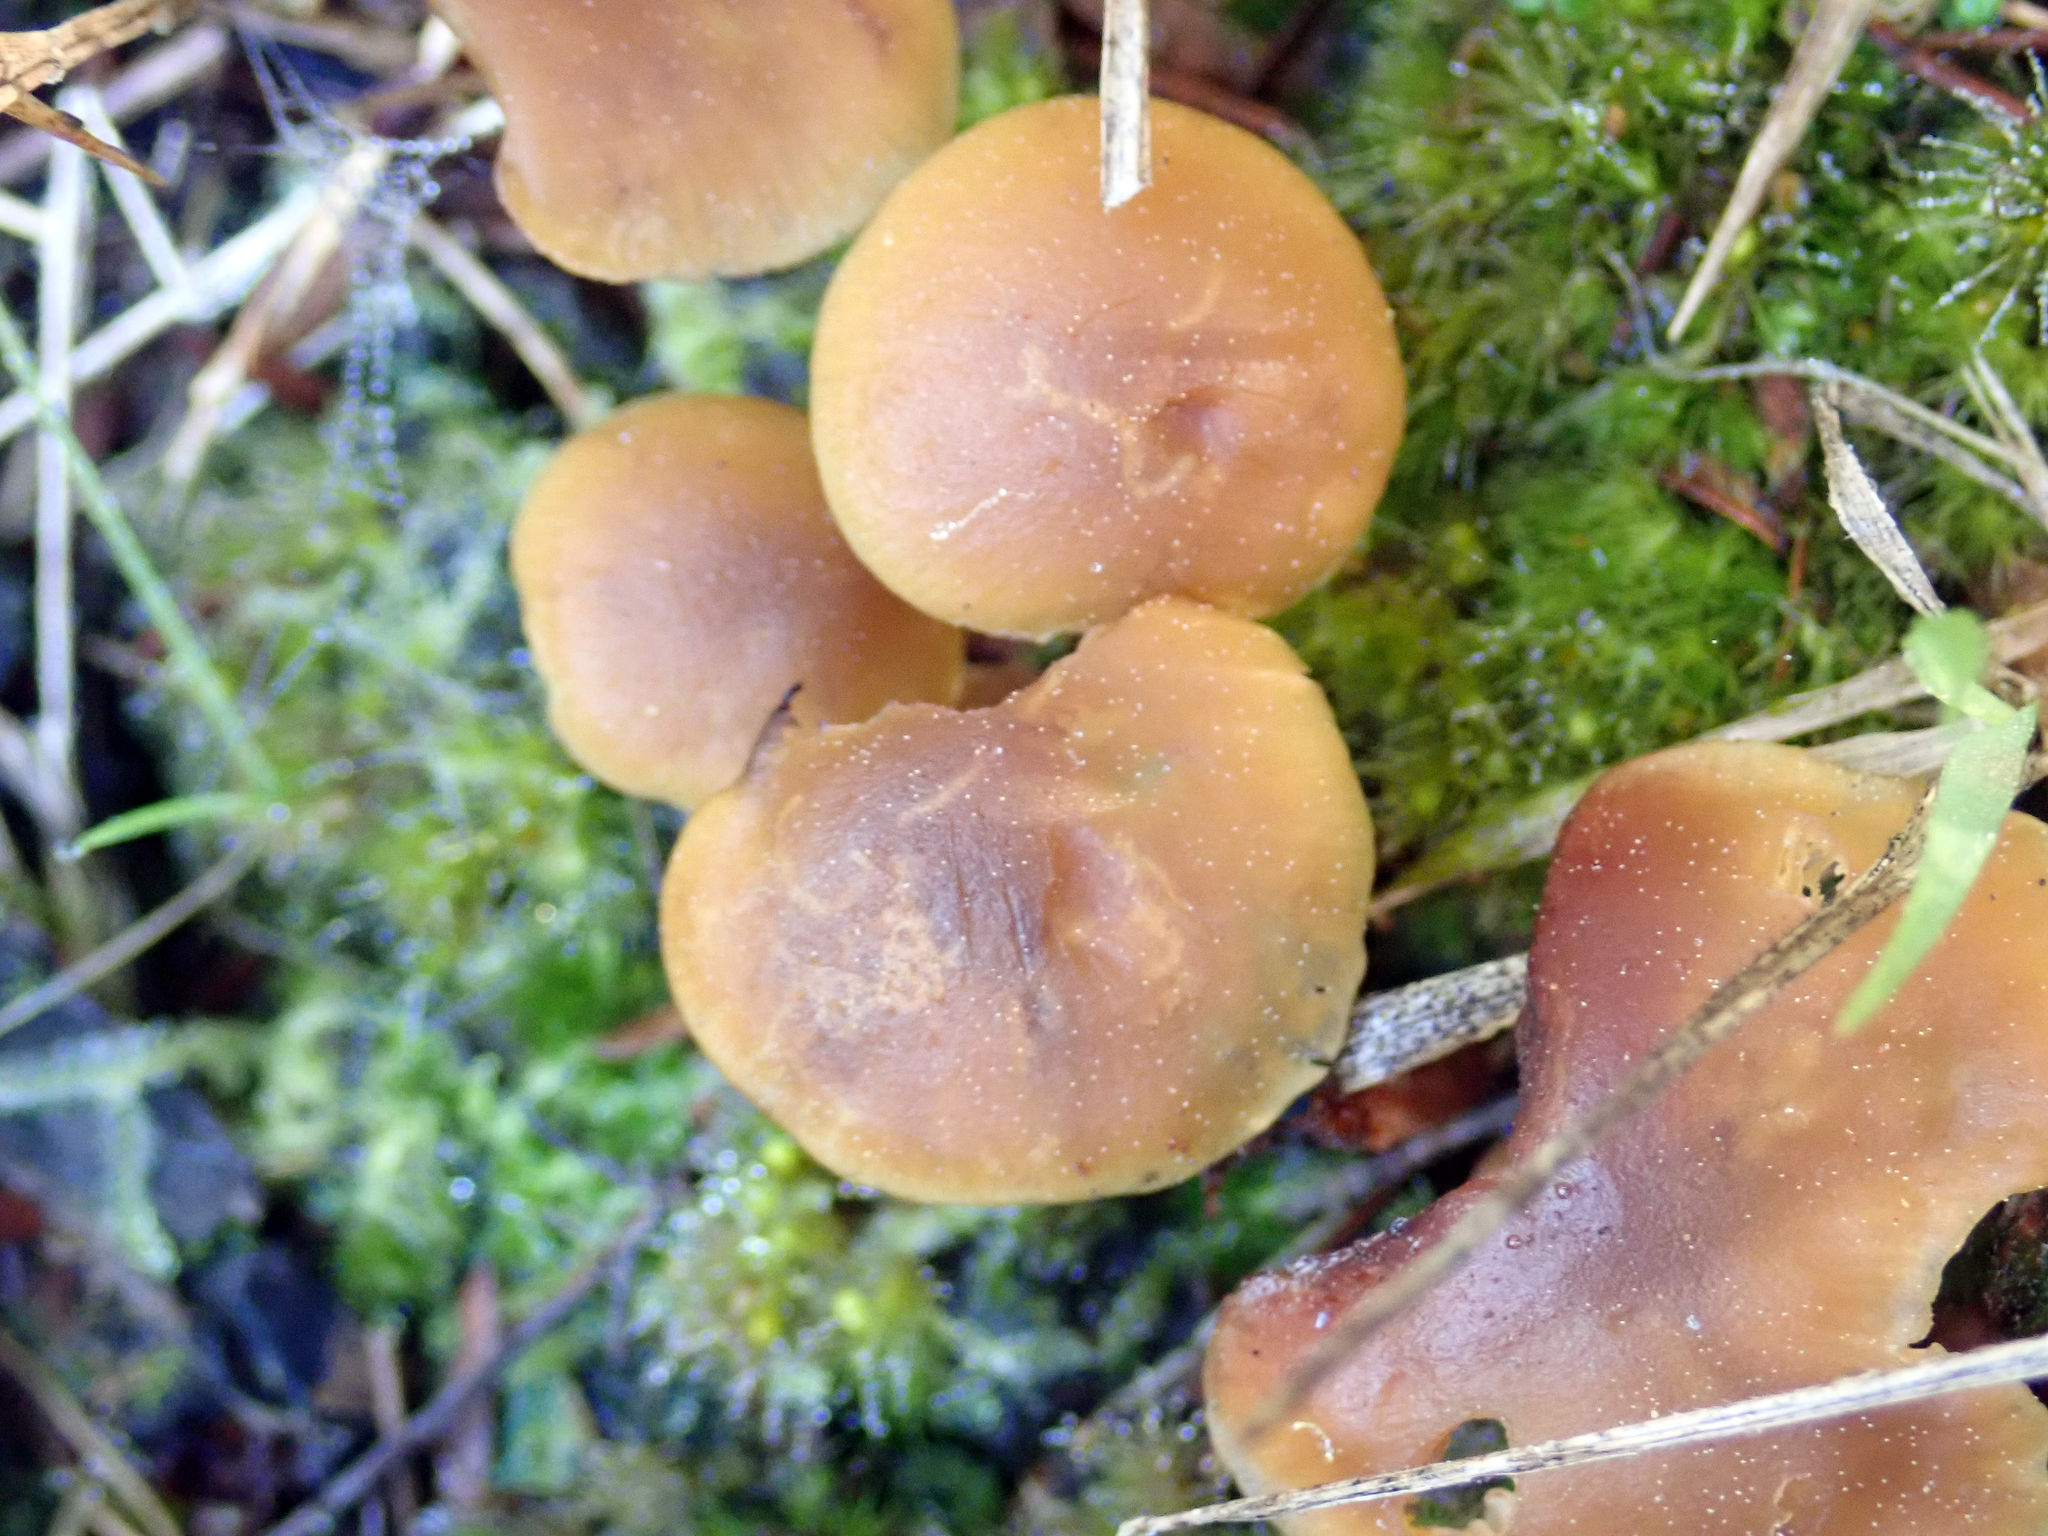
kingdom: Fungi
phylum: Basidiomycota
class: Agaricomycetes
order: Agaricales
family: Callistosporiaceae
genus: Callistosporium
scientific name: Callistosporium
